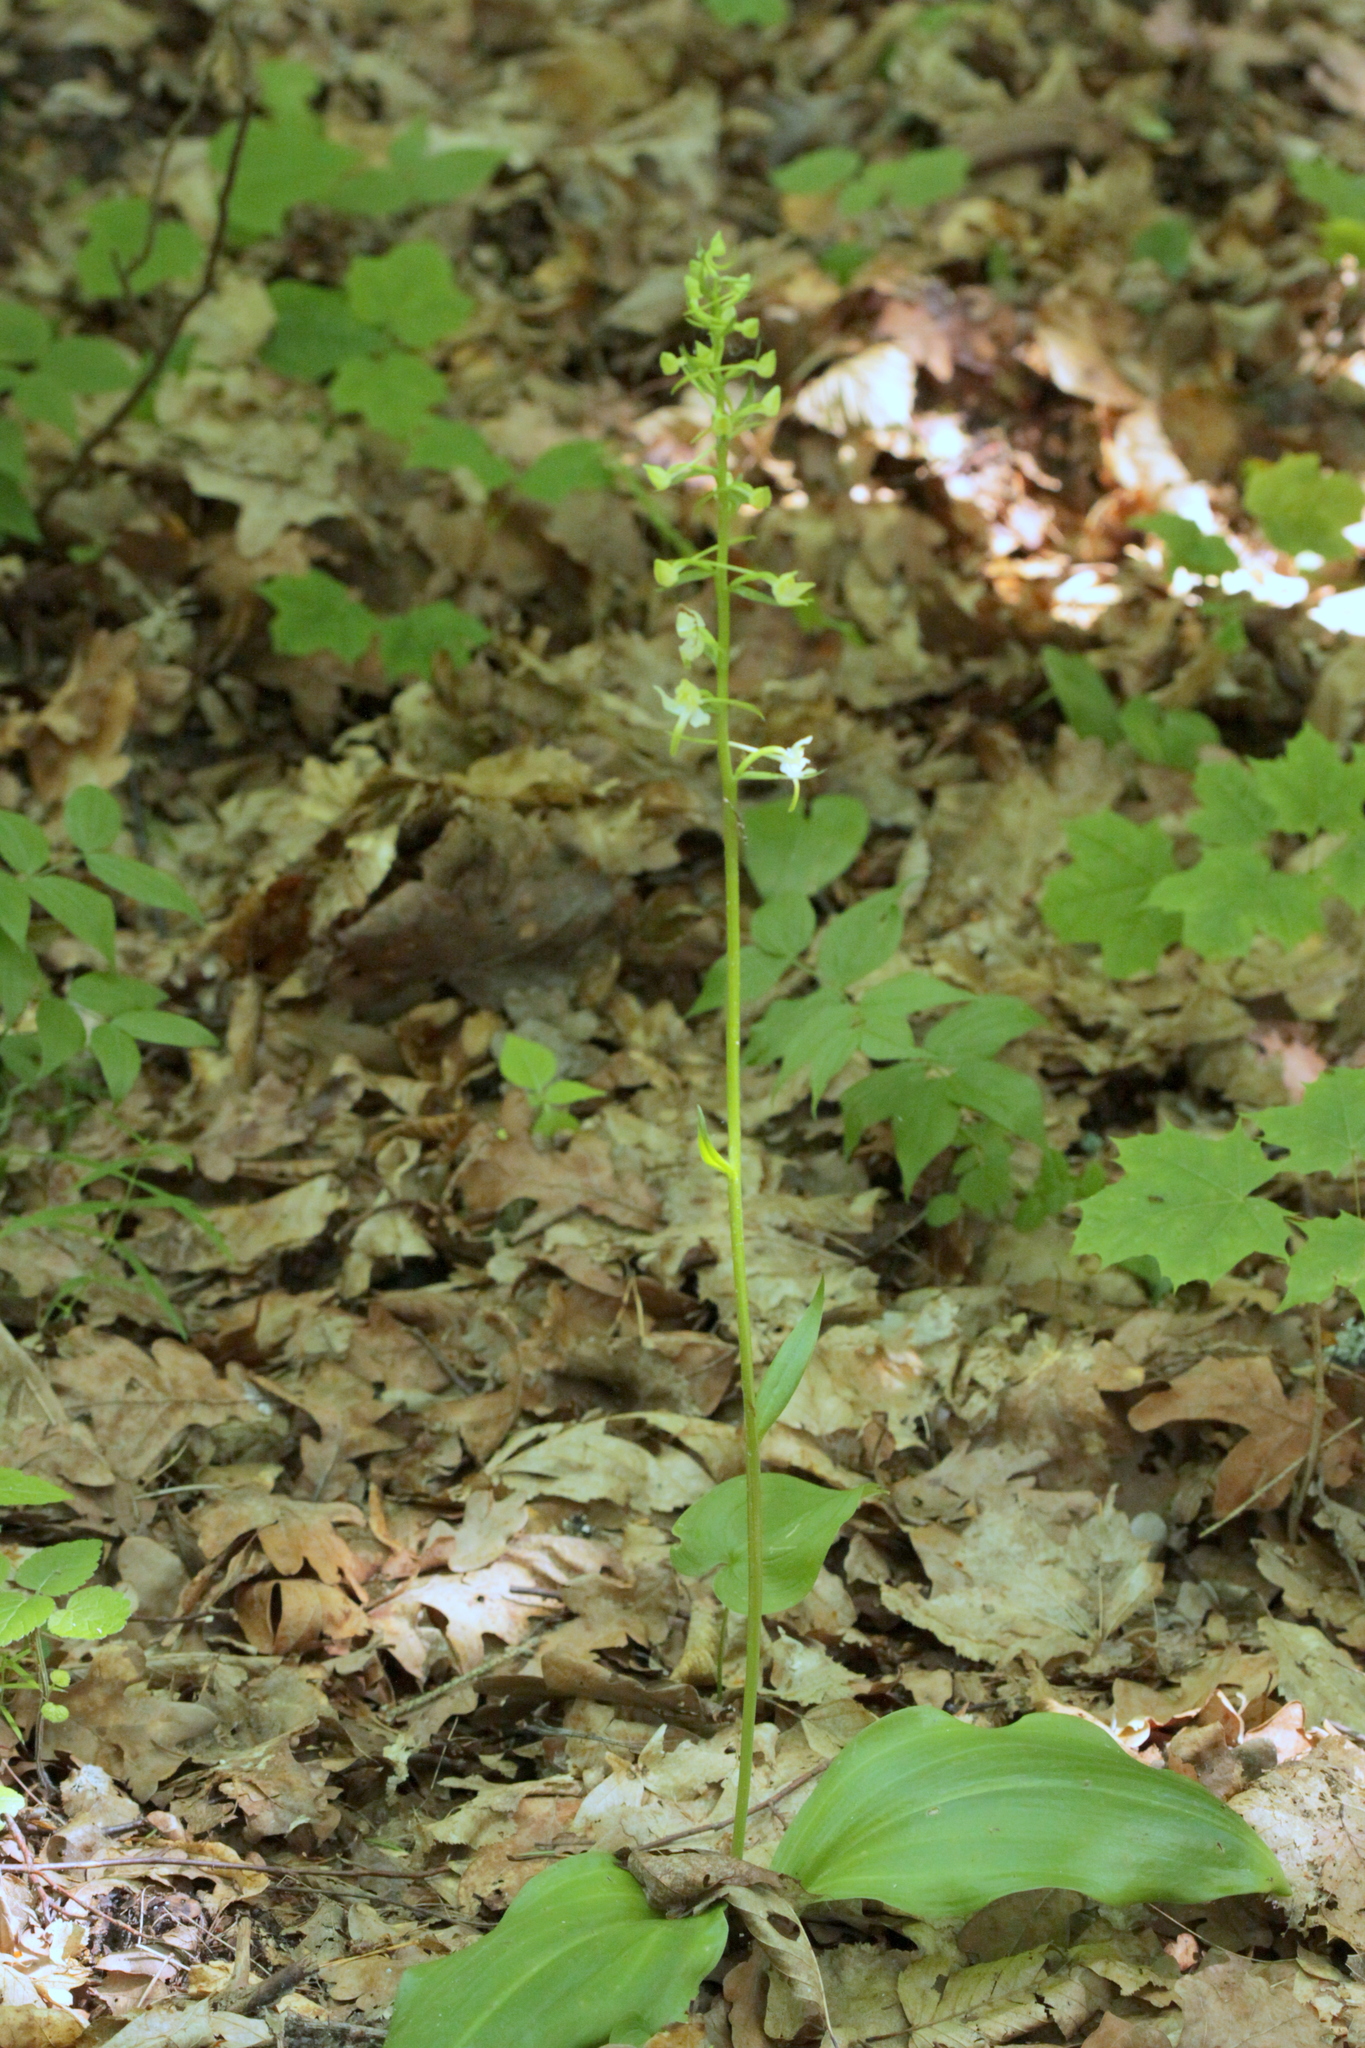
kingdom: Plantae
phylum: Tracheophyta
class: Liliopsida
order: Asparagales
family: Orchidaceae
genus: Platanthera
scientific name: Platanthera chlorantha
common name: Greater butterfly-orchid
